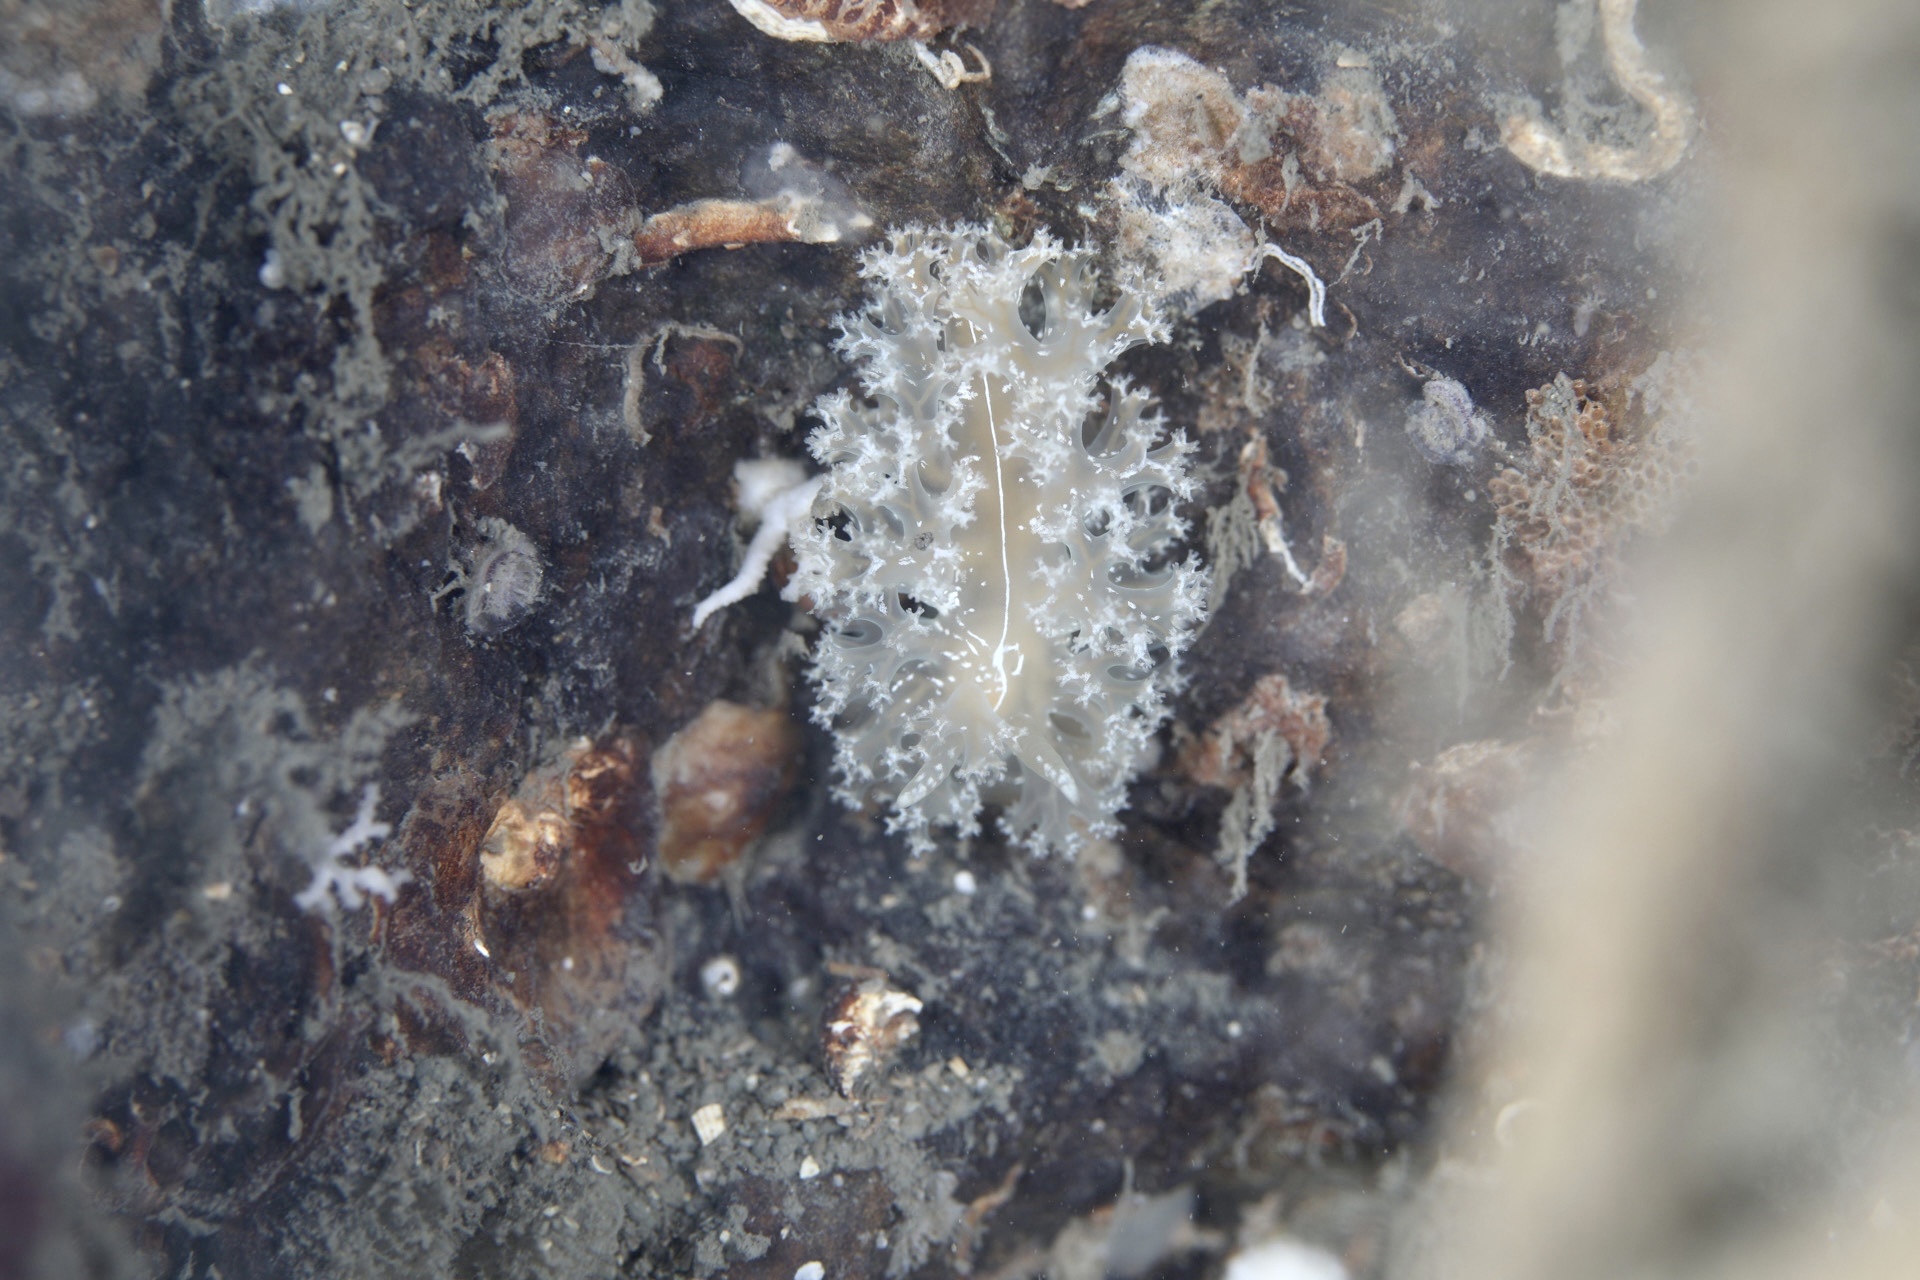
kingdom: Animalia
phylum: Mollusca
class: Gastropoda
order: Nudibranchia
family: Heroidae
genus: Hero
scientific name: Hero formosa
